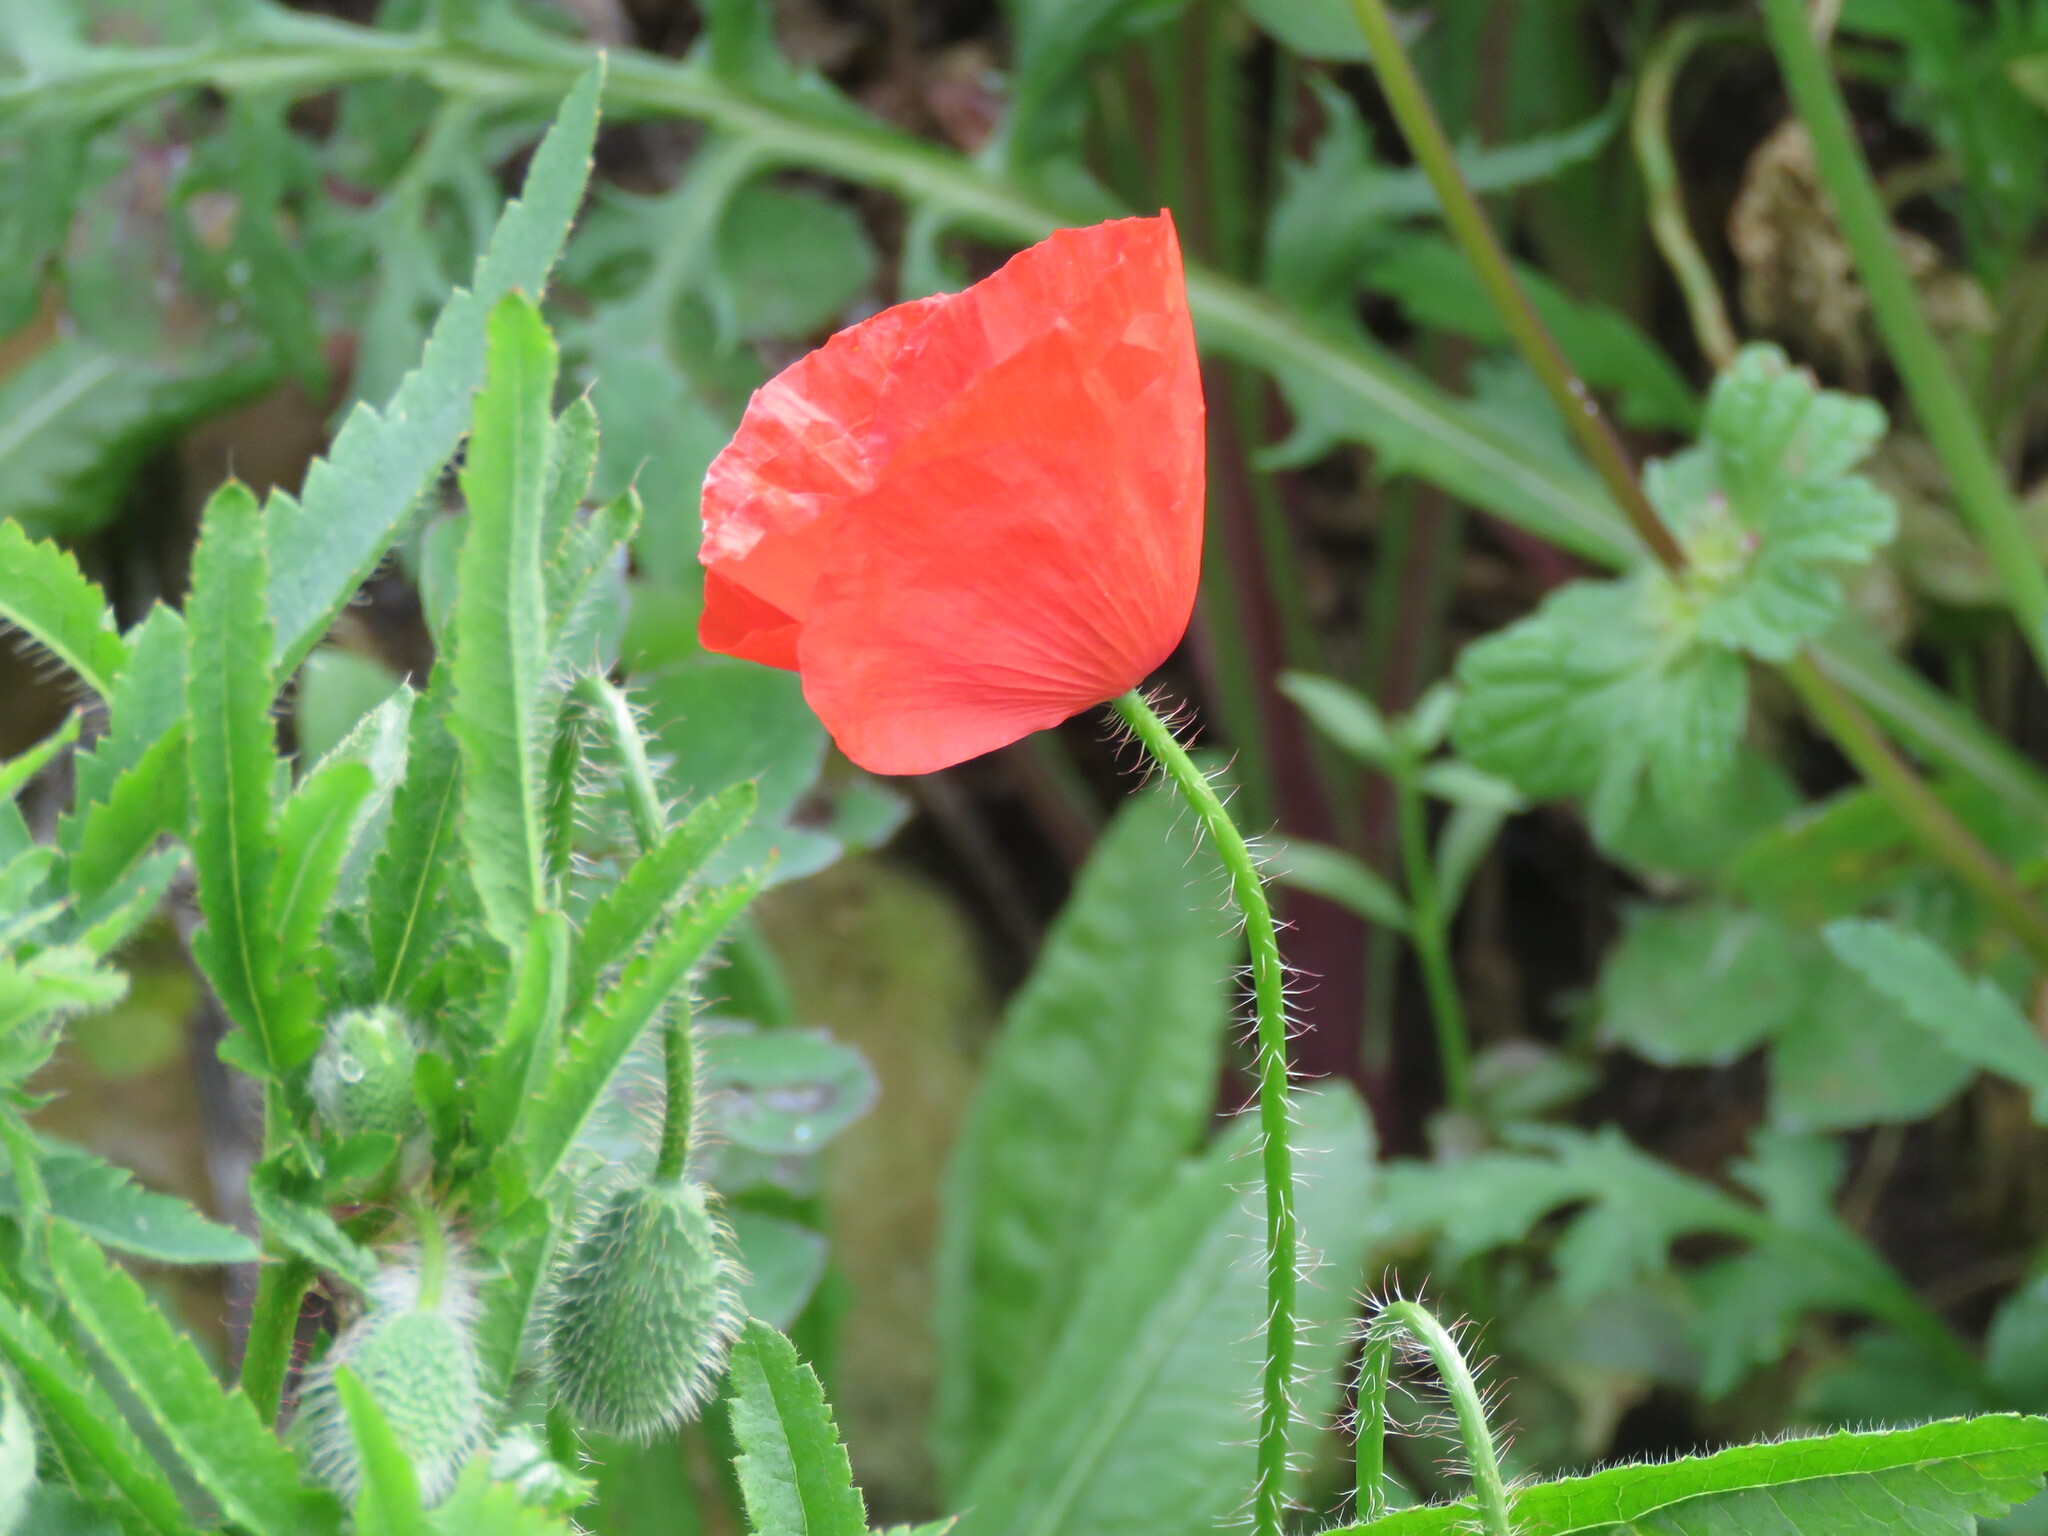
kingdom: Plantae
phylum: Tracheophyta
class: Magnoliopsida
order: Ranunculales
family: Papaveraceae
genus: Papaver
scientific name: Papaver rhoeas
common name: Corn poppy
